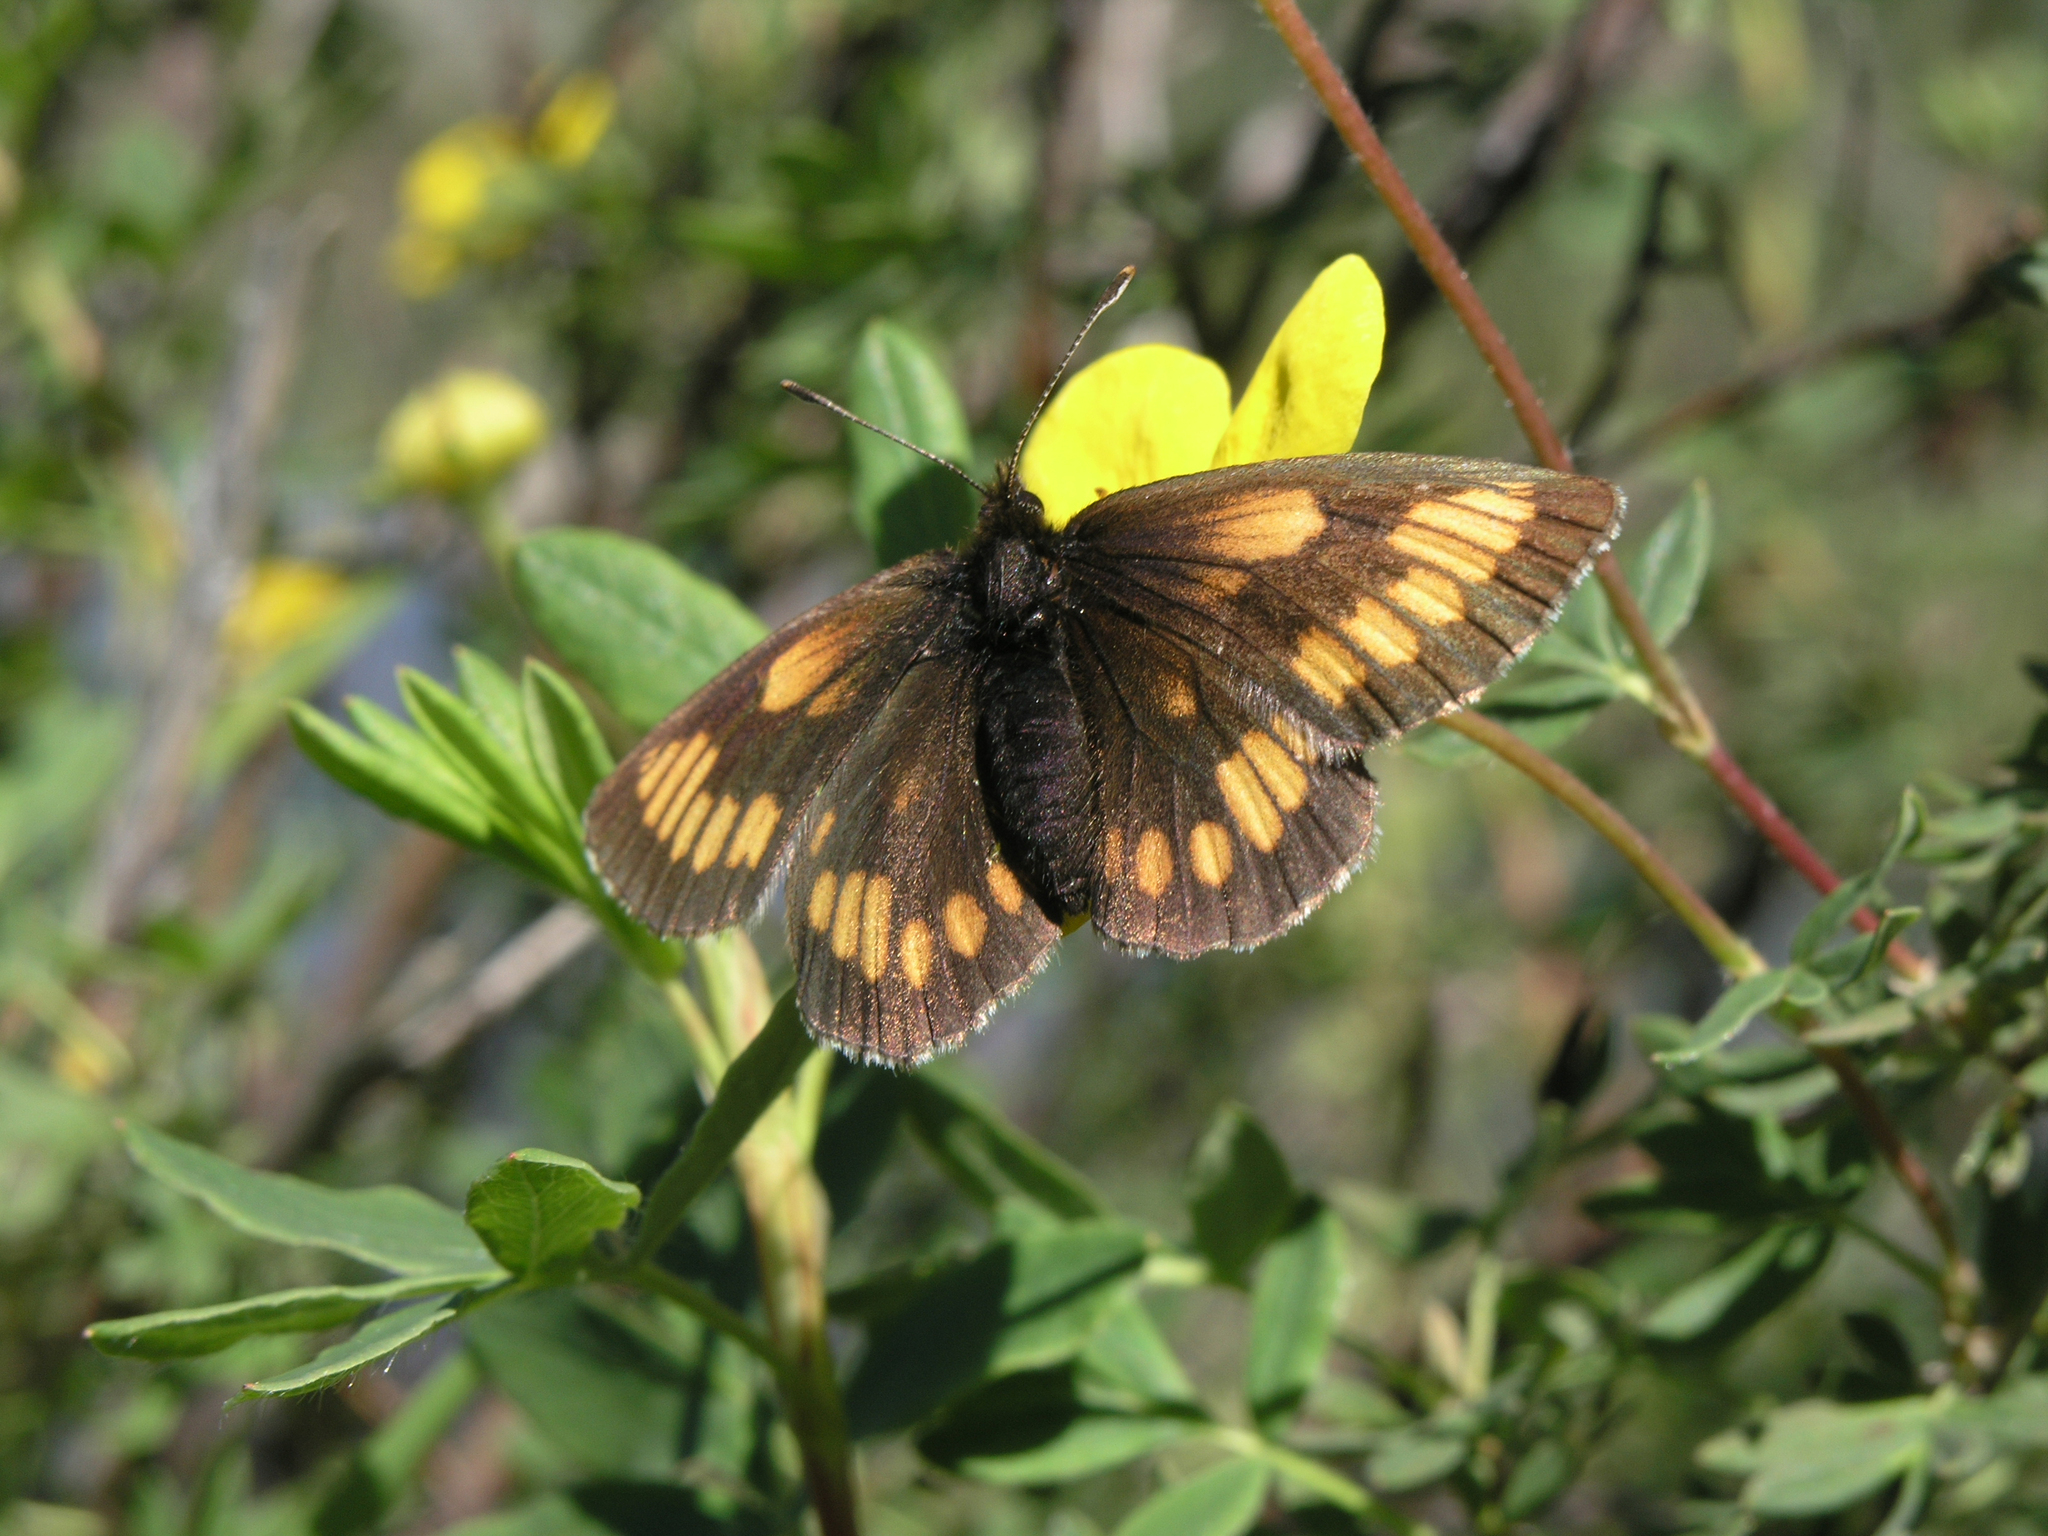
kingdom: Plantae
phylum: Tracheophyta
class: Magnoliopsida
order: Rosales
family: Rosaceae
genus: Dasiphora
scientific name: Dasiphora fruticosa
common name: Shrubby cinquefoil
